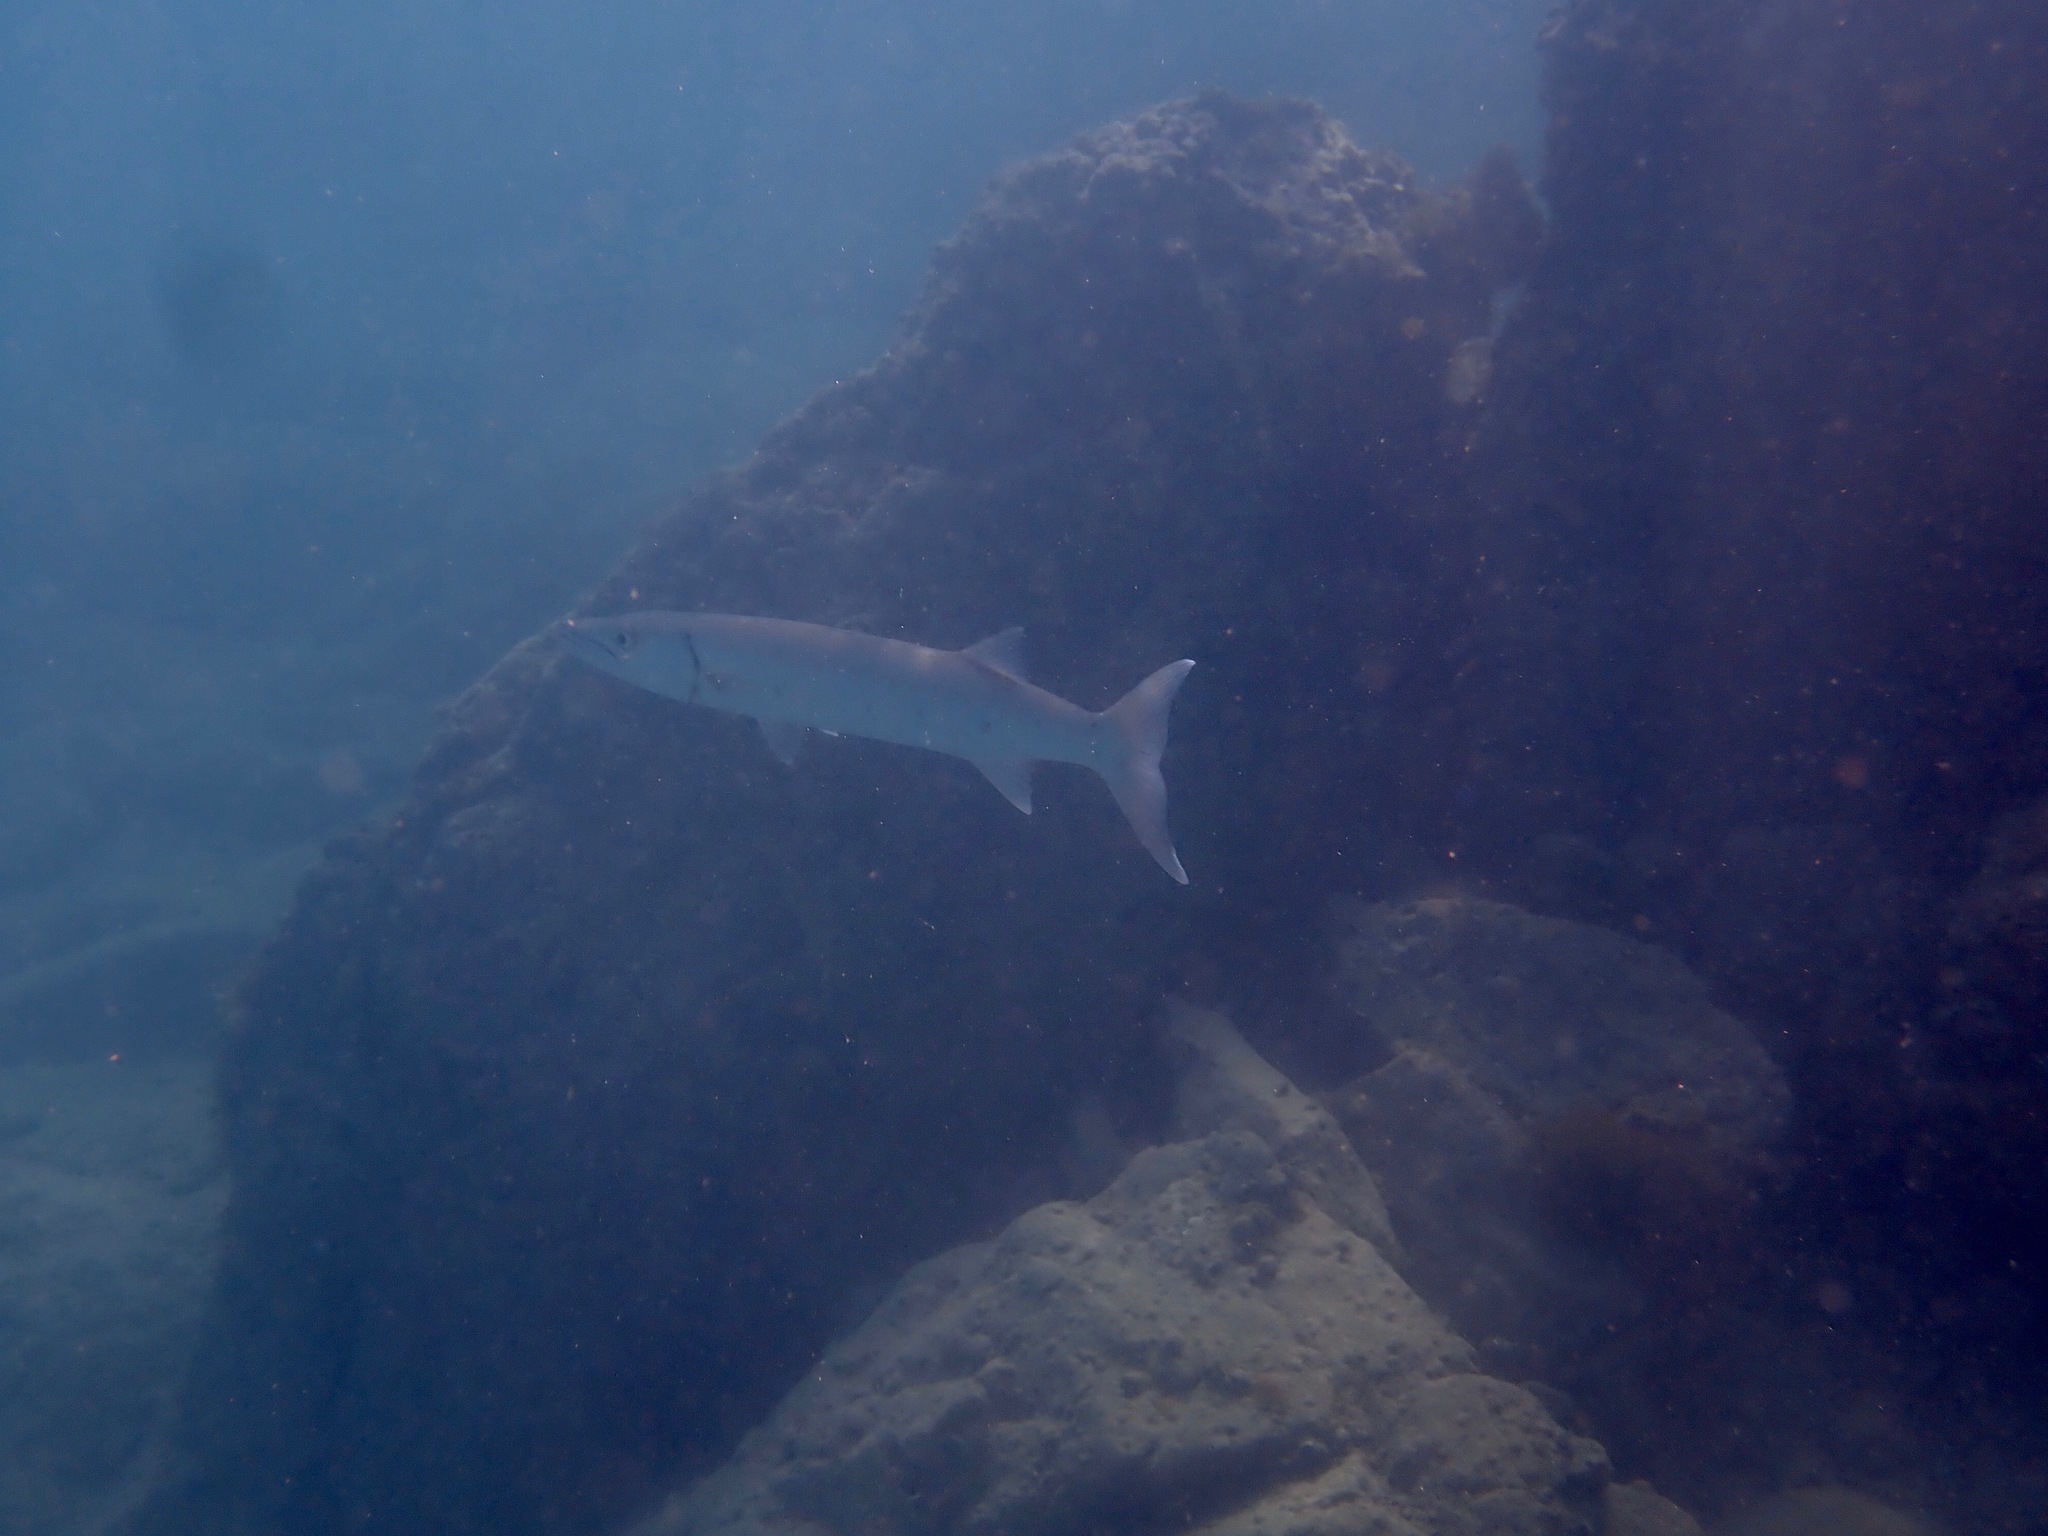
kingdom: Animalia
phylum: Chordata
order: Perciformes
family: Sphyraenidae
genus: Sphyraena
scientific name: Sphyraena barracuda
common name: Great barracuda
